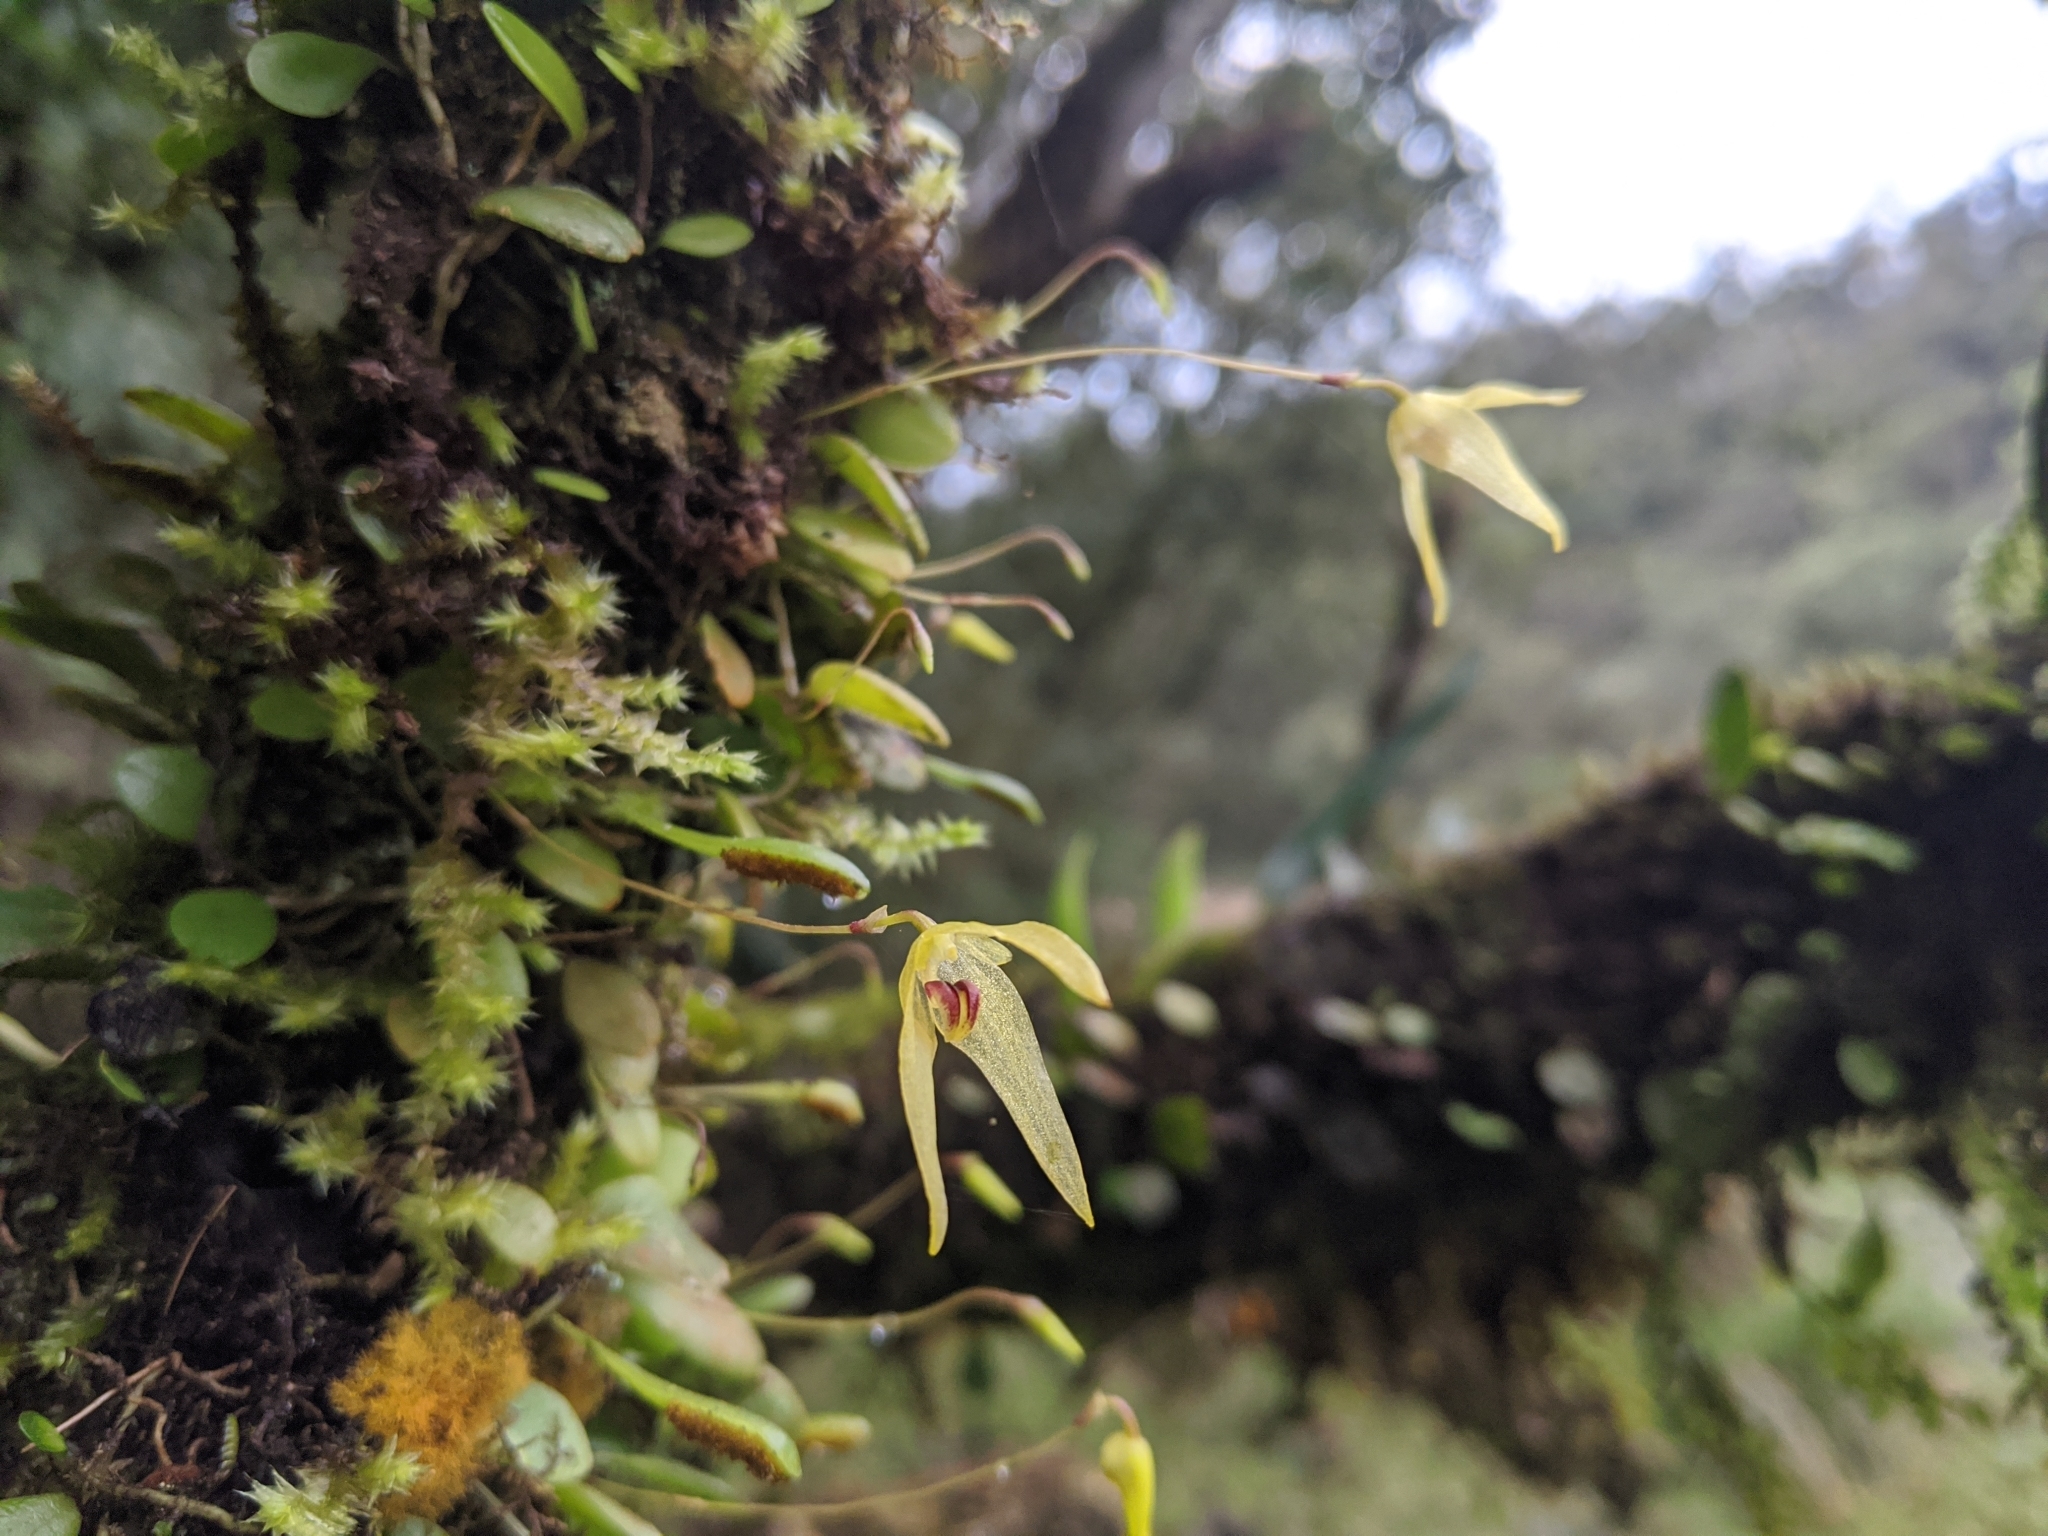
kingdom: Plantae
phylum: Tracheophyta
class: Liliopsida
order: Asparagales
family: Orchidaceae
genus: Bulbophyllum
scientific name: Bulbophyllum drymoglossum
